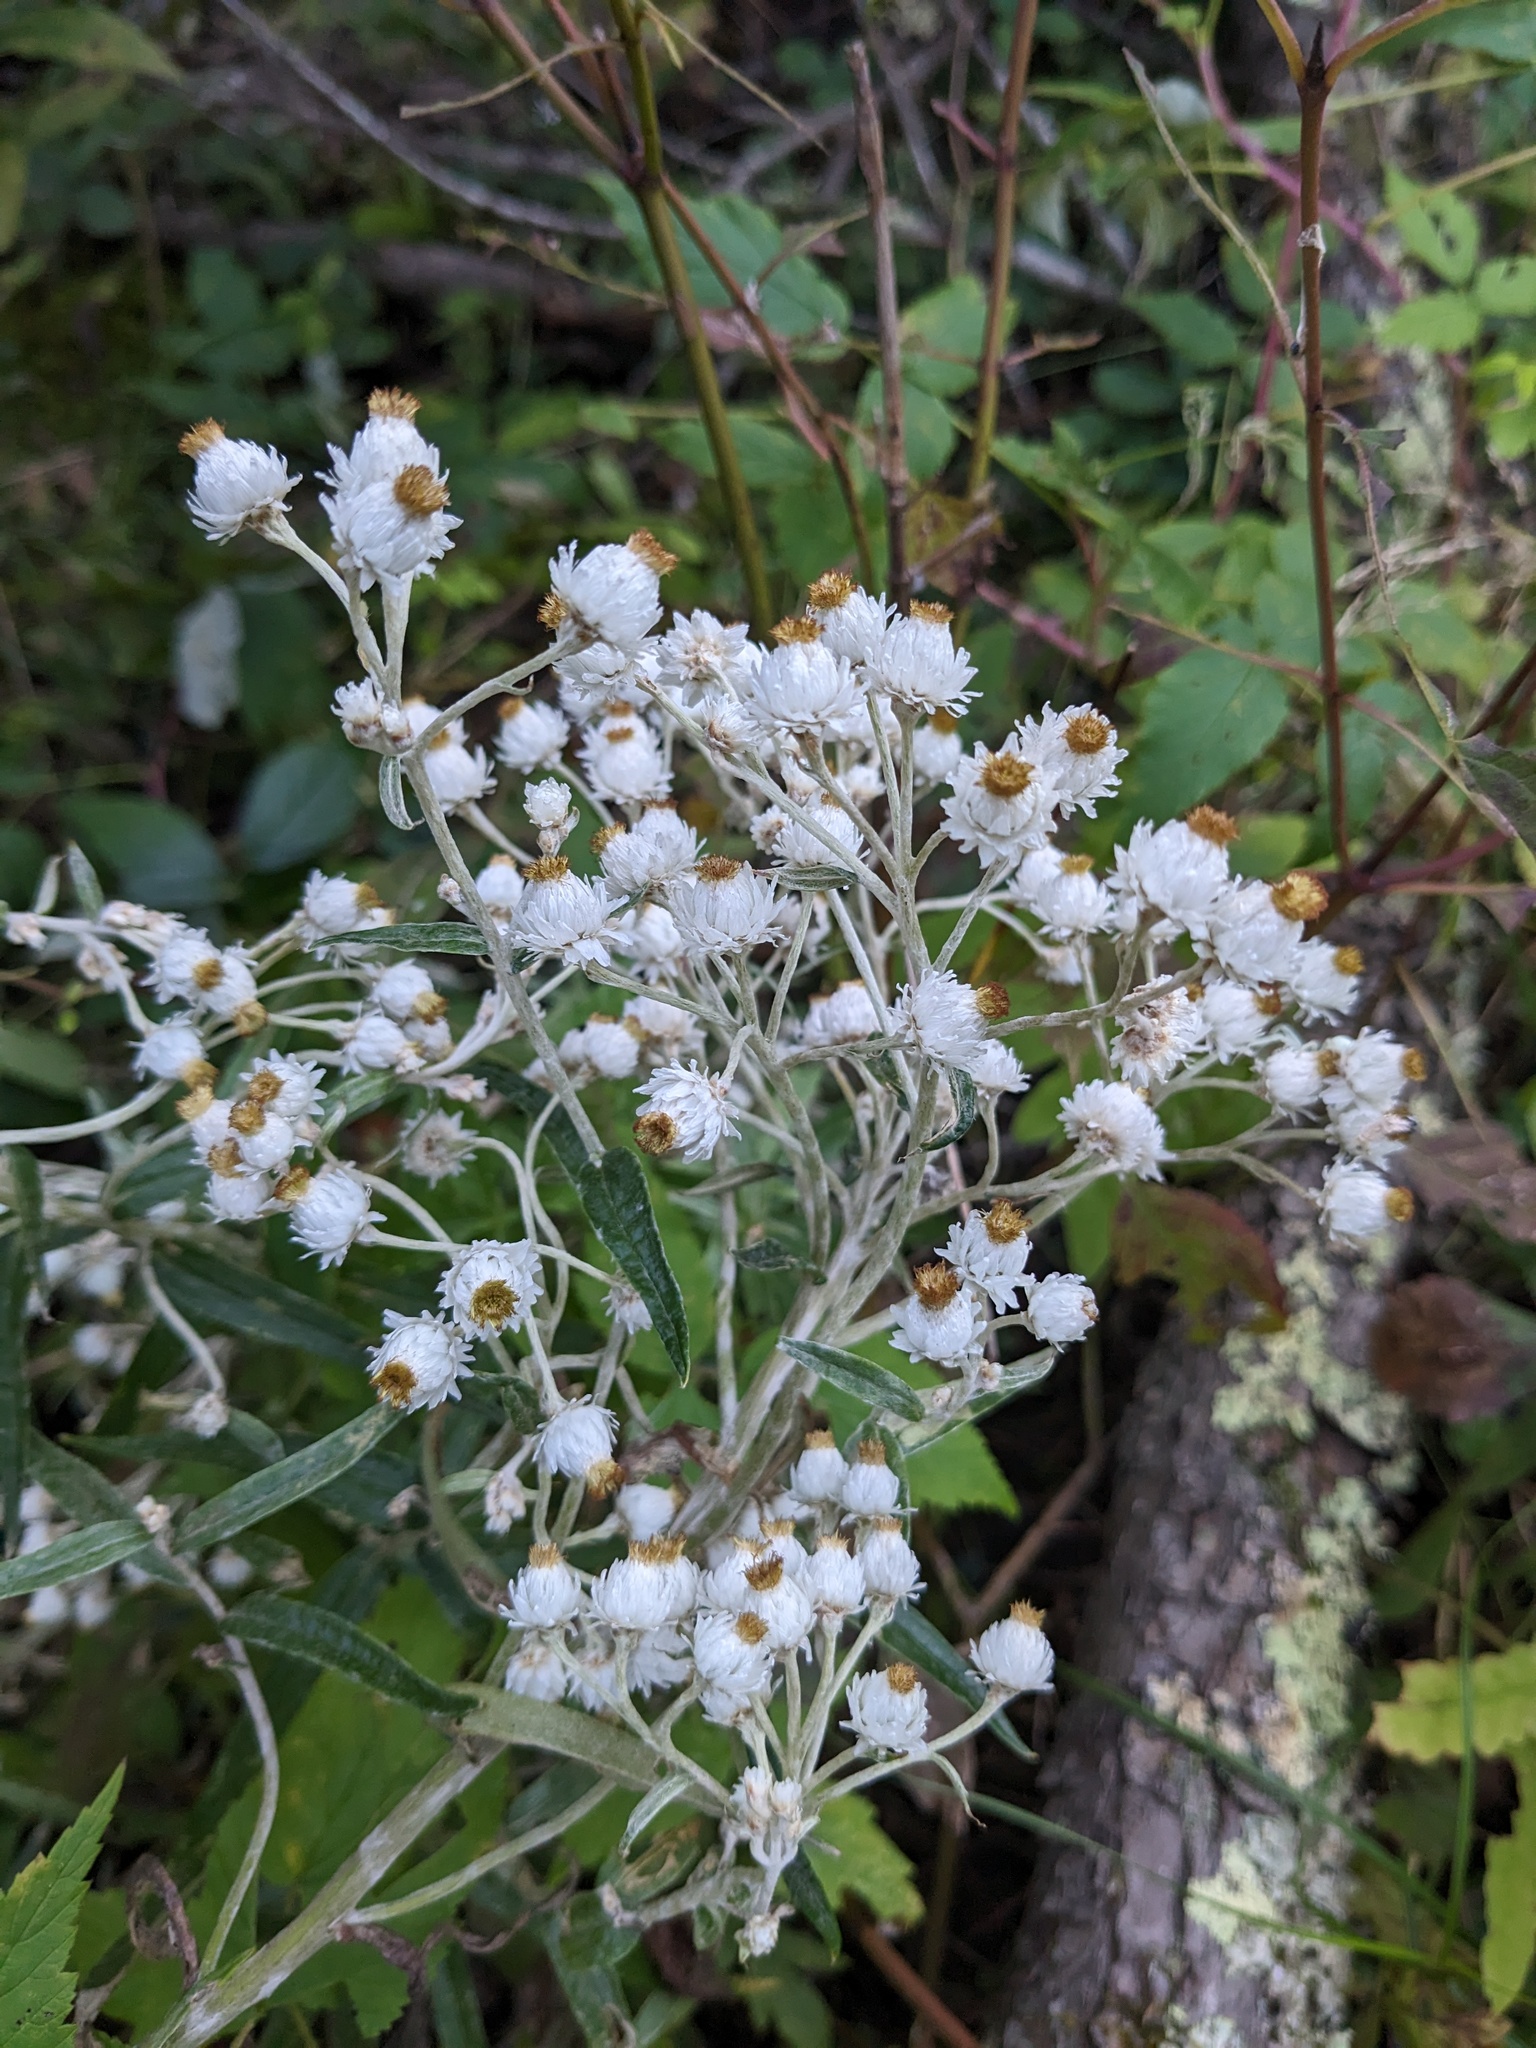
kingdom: Plantae
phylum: Tracheophyta
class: Magnoliopsida
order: Asterales
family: Asteraceae
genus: Anaphalis
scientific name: Anaphalis margaritacea
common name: Pearly everlasting
